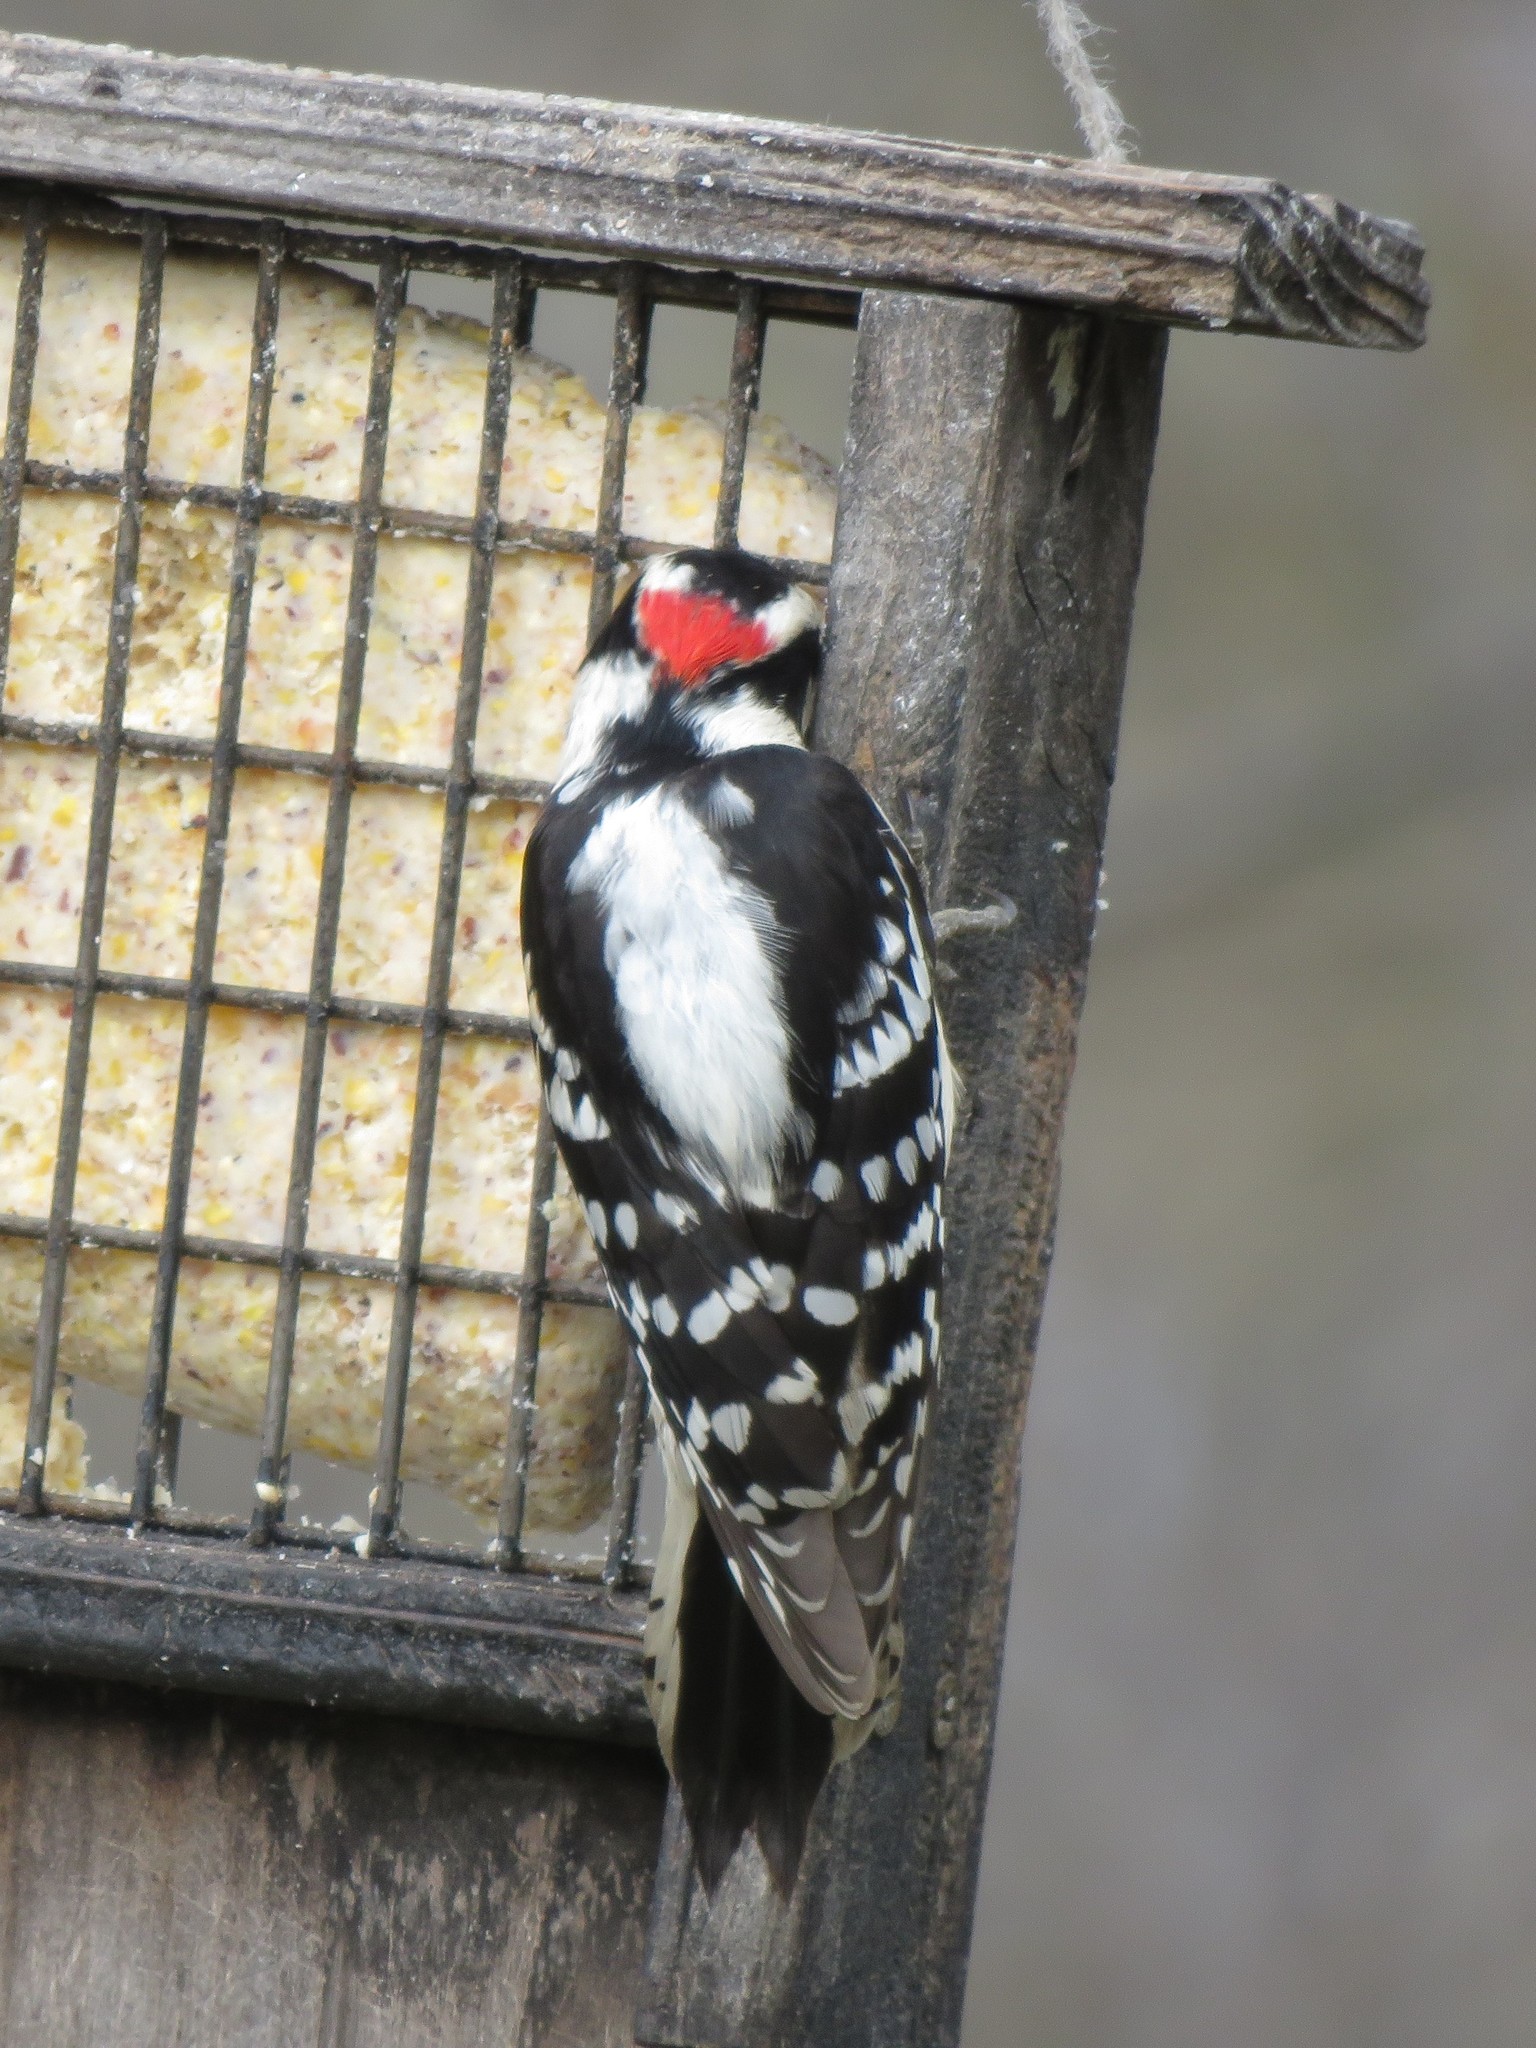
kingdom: Animalia
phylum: Chordata
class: Aves
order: Piciformes
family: Picidae
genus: Dryobates
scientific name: Dryobates pubescens
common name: Downy woodpecker
